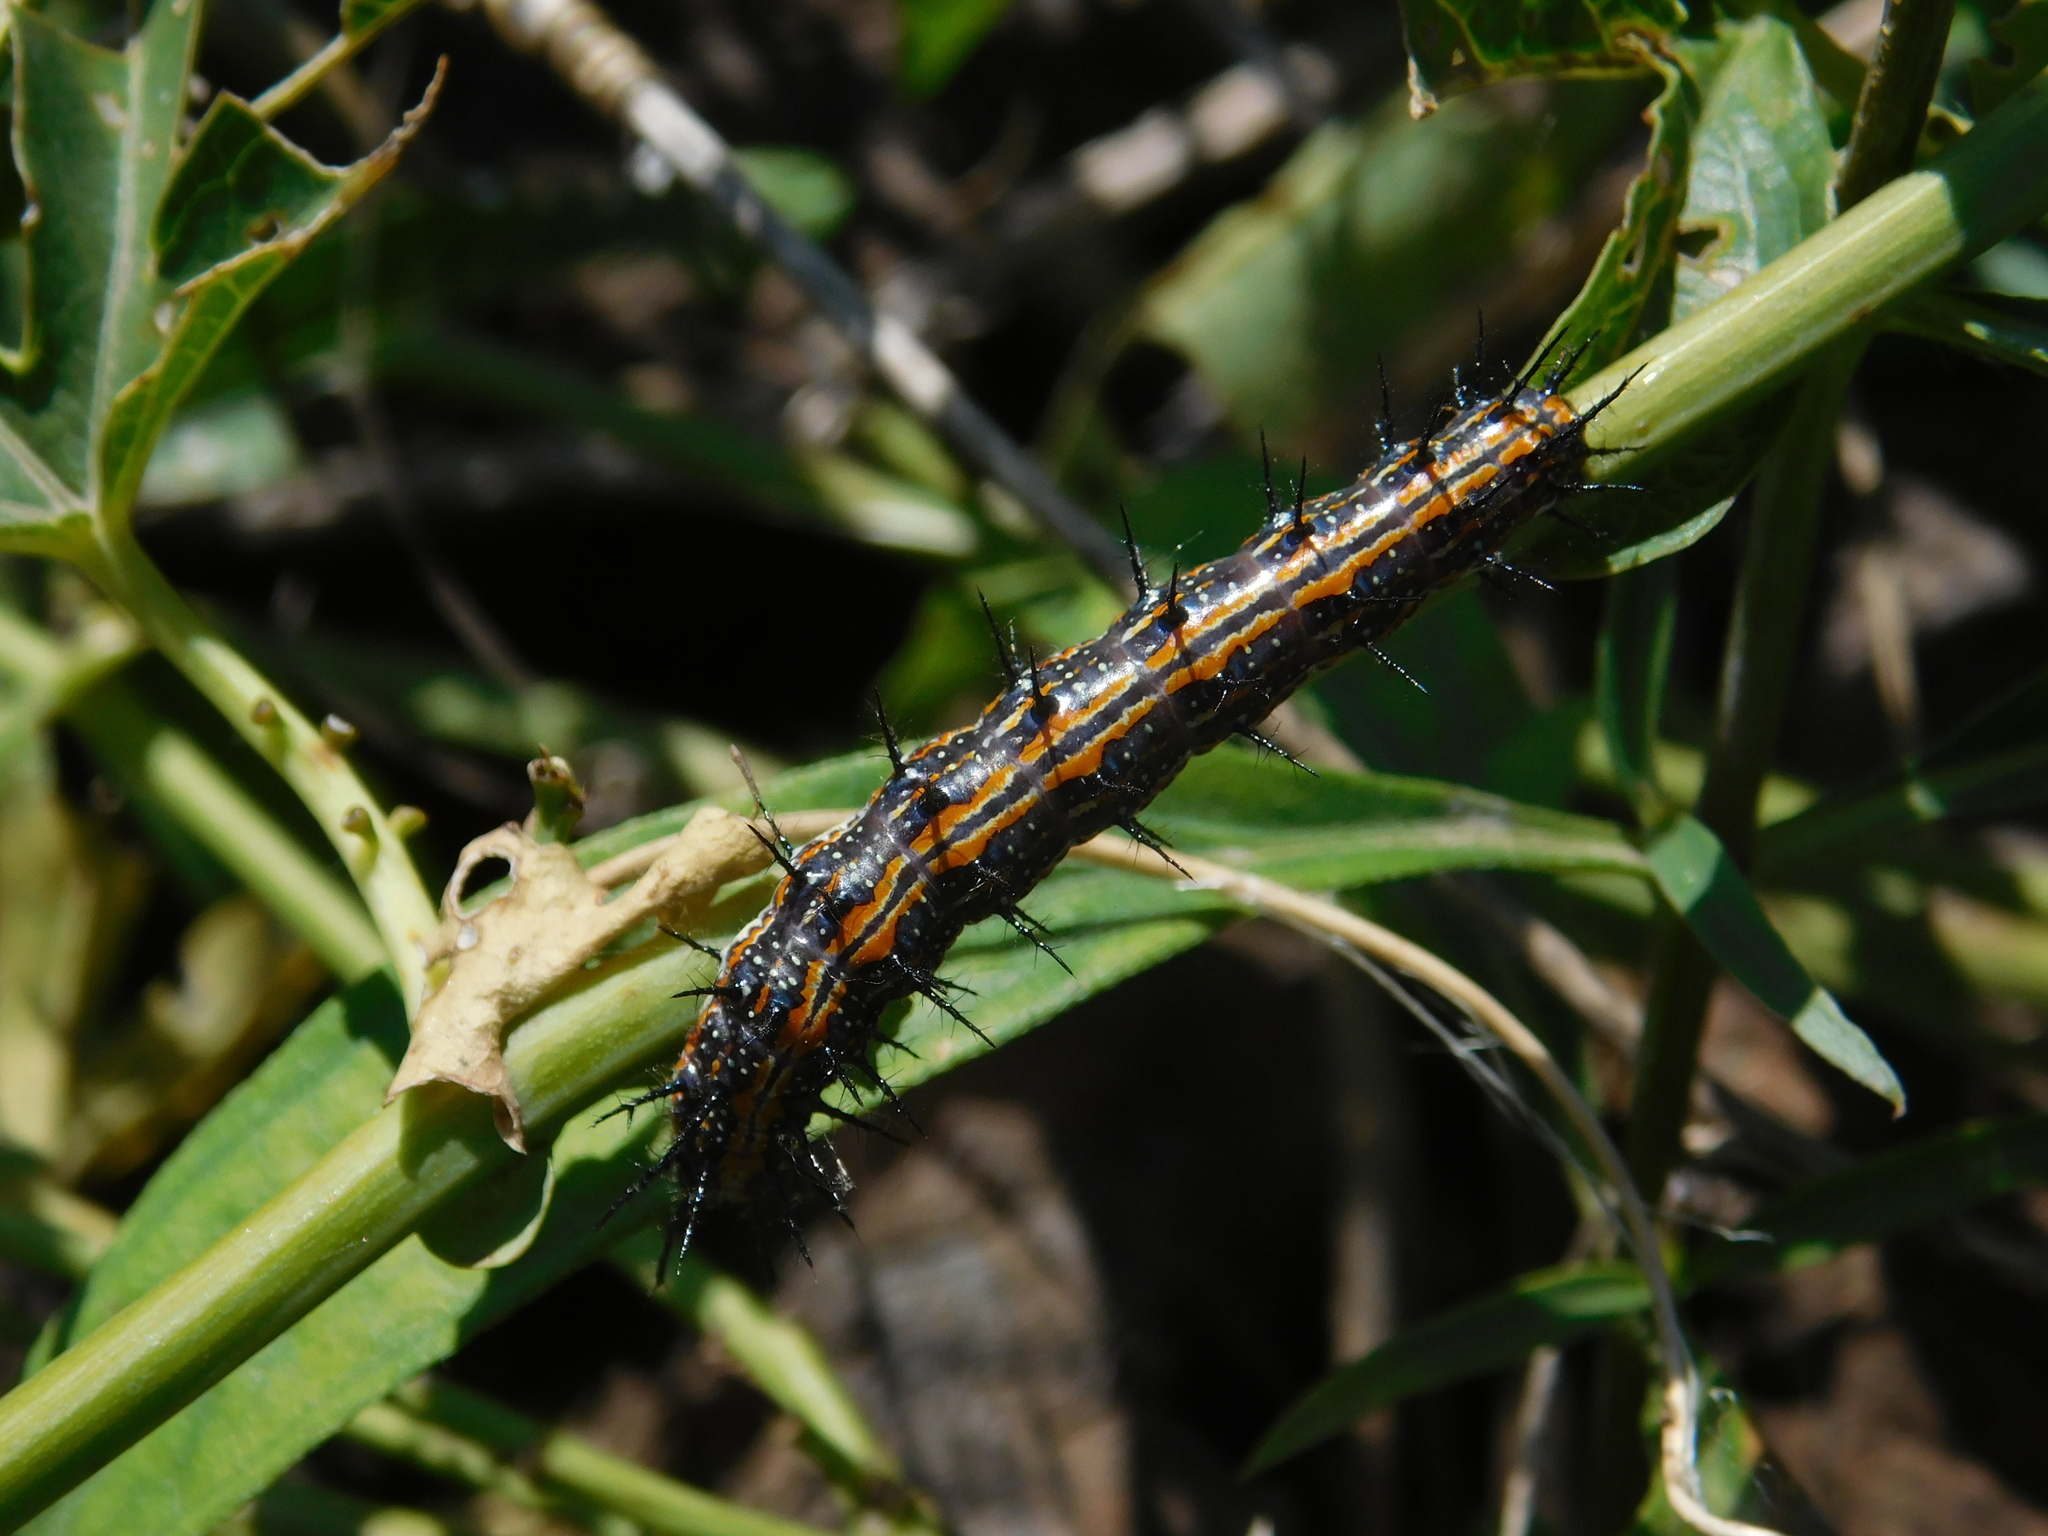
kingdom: Animalia
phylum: Arthropoda
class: Insecta
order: Lepidoptera
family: Nymphalidae
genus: Dione
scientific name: Dione vanillae
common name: Gulf fritillary
